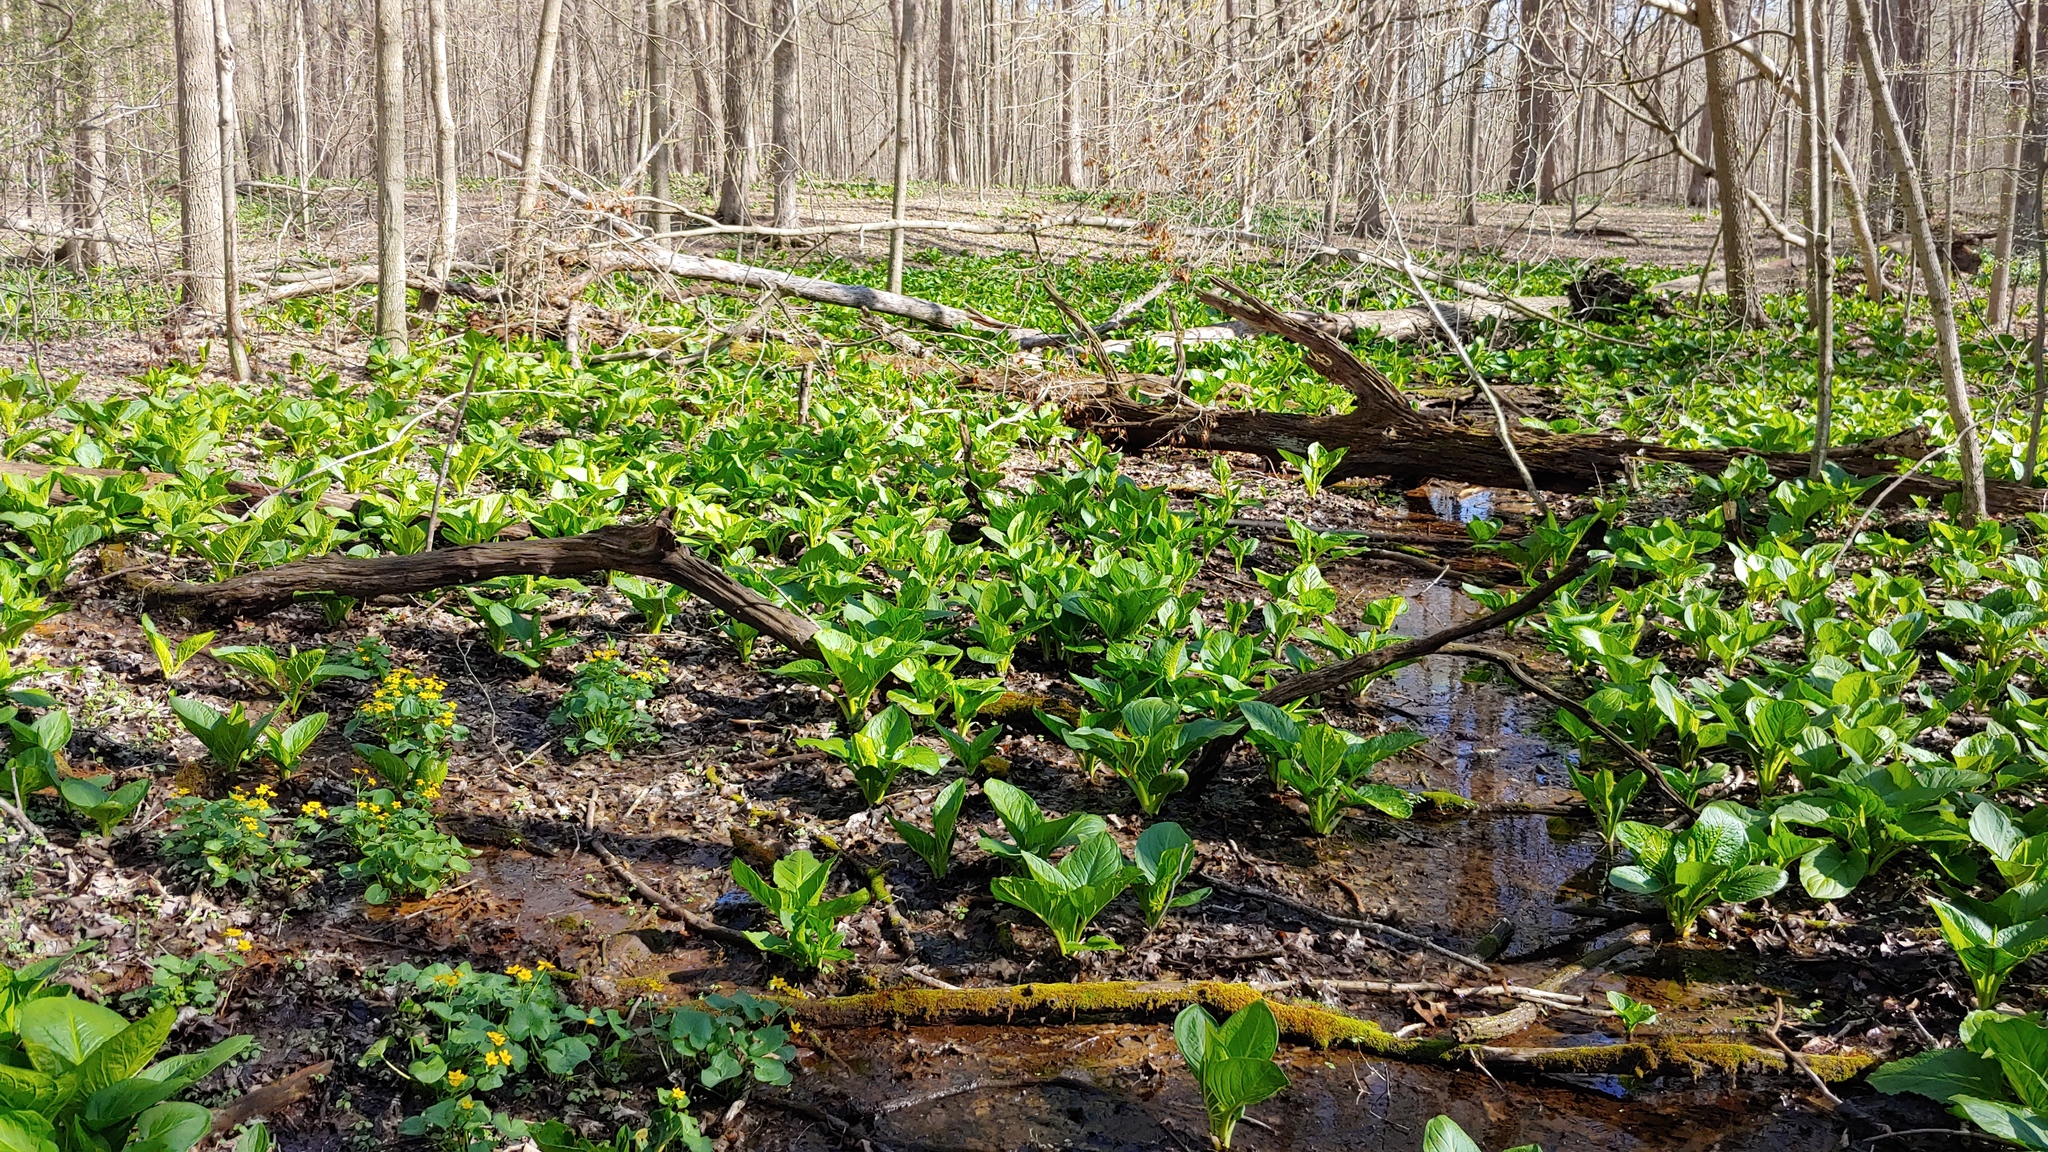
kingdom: Plantae
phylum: Tracheophyta
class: Liliopsida
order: Alismatales
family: Araceae
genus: Symplocarpus
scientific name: Symplocarpus foetidus
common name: Eastern skunk cabbage
